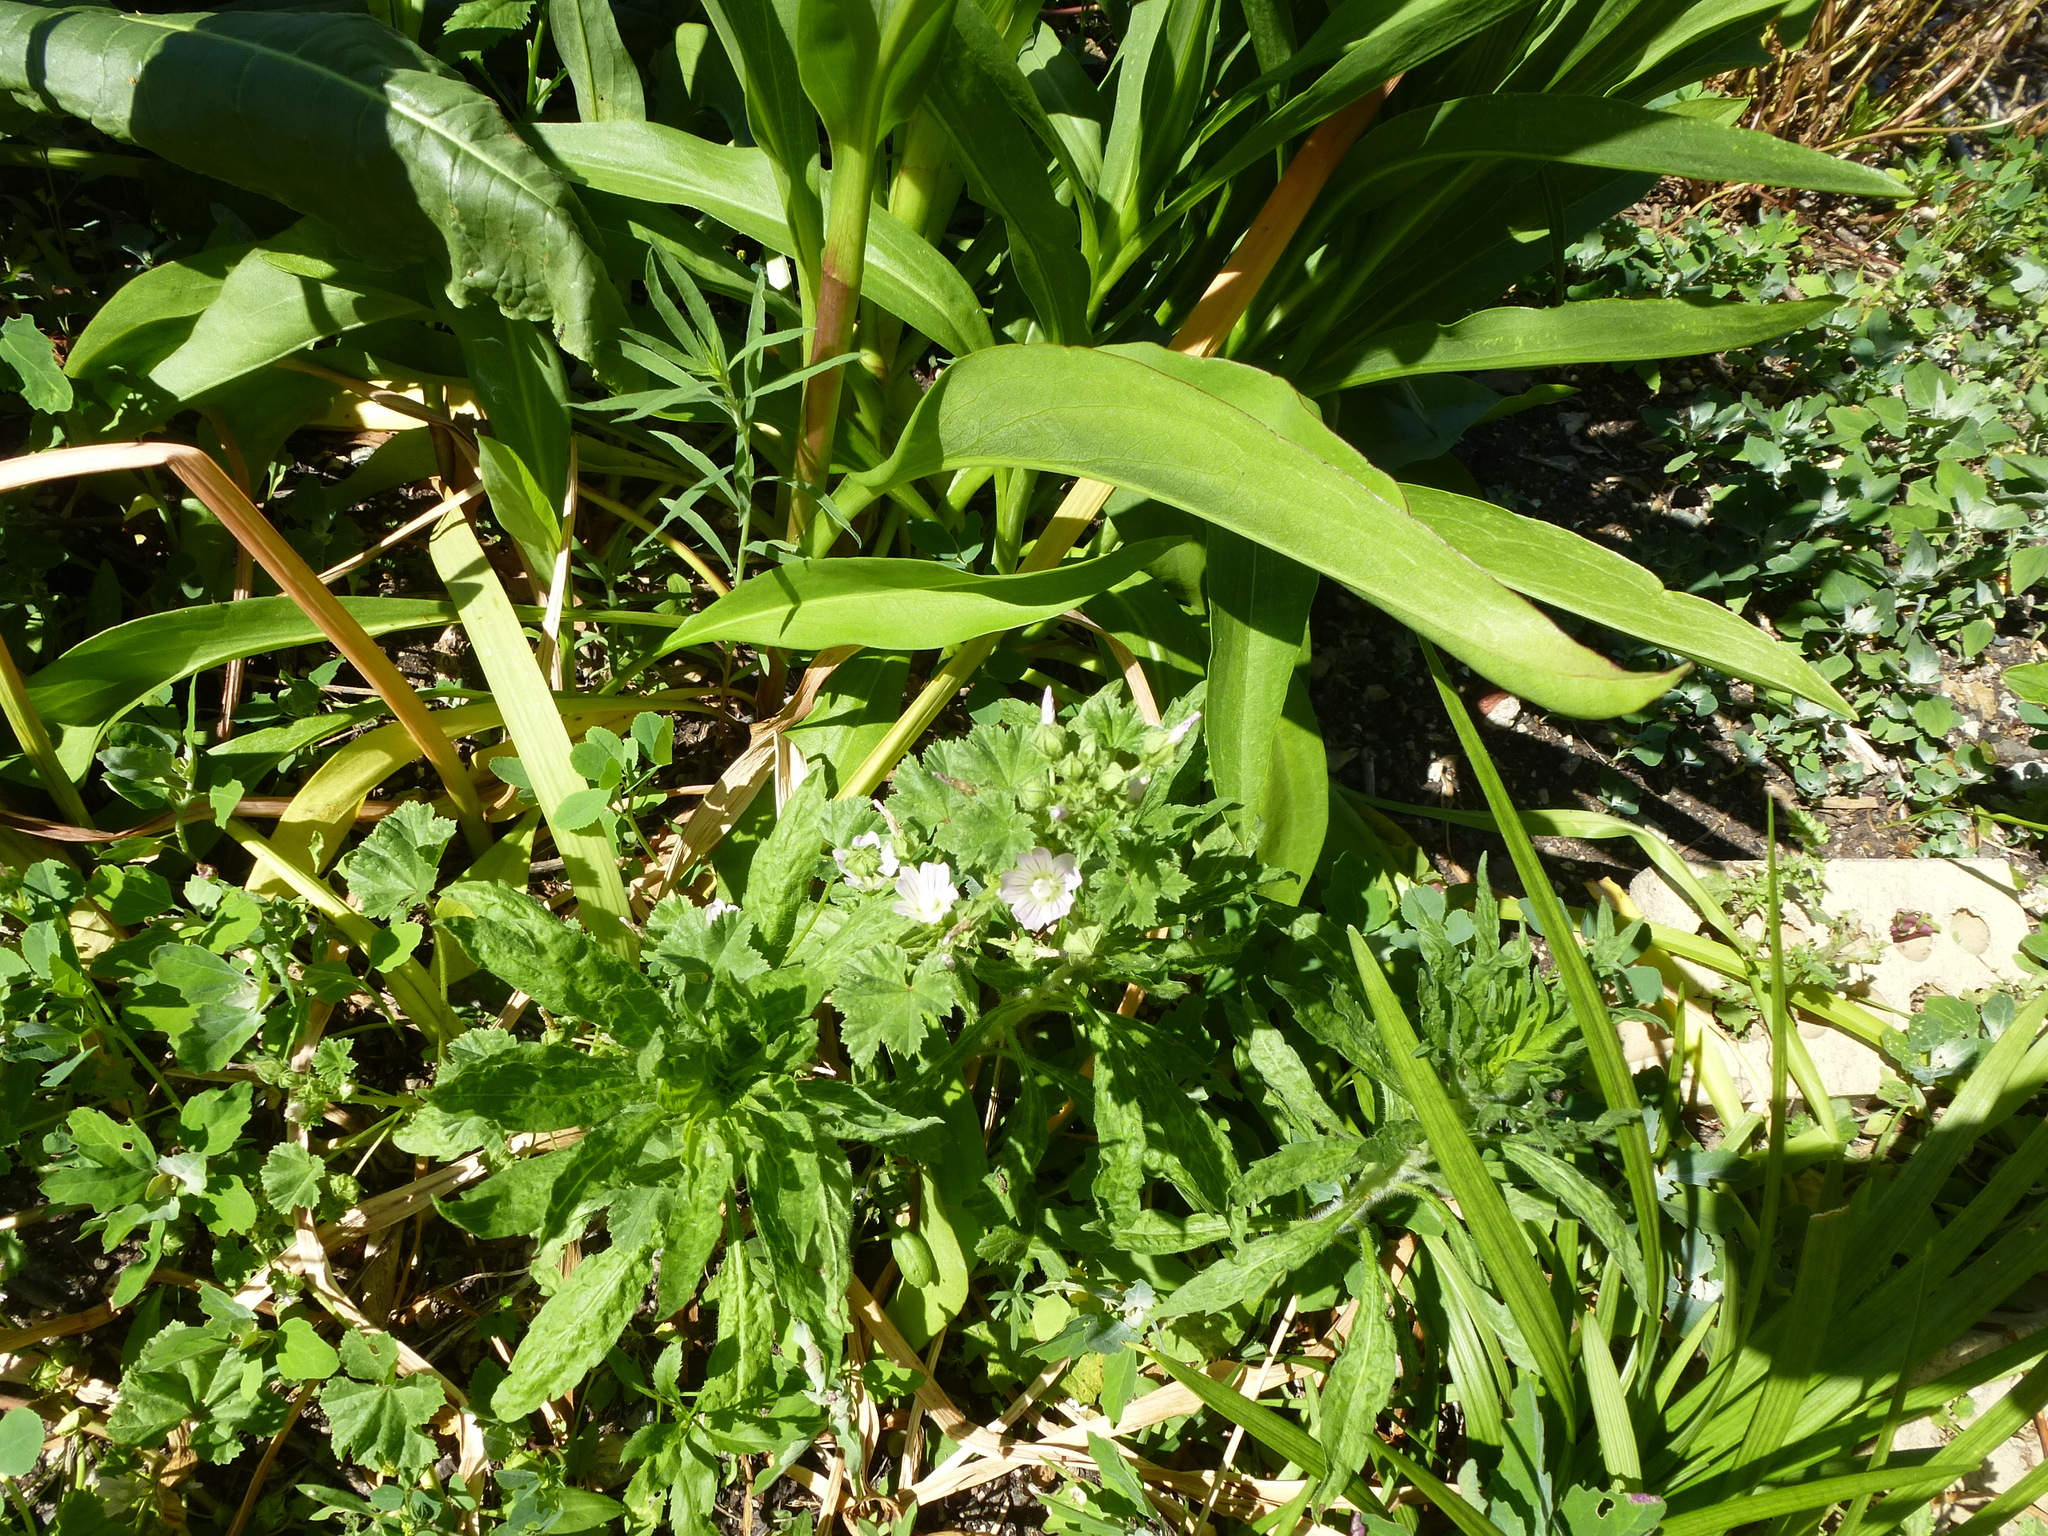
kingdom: Plantae
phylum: Tracheophyta
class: Magnoliopsida
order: Malvales
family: Malvaceae
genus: Malva
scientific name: Malva neglecta
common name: Common mallow
